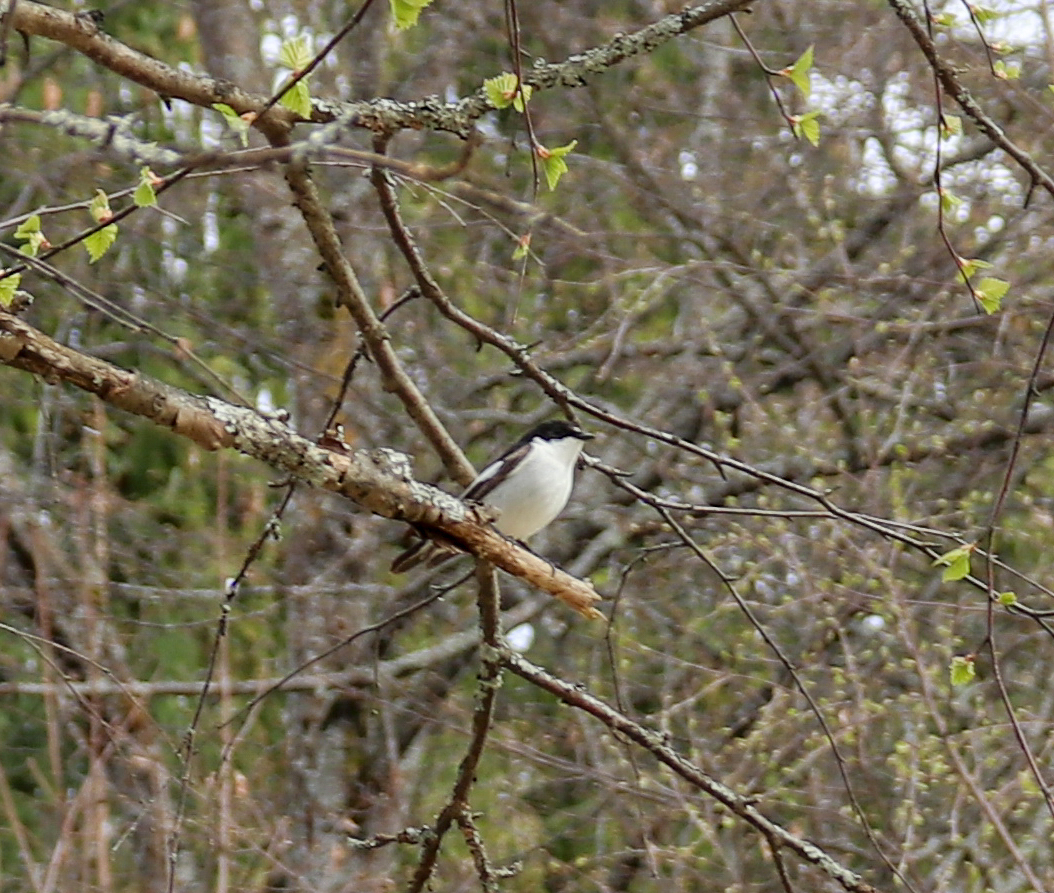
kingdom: Animalia
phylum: Chordata
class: Aves
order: Passeriformes
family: Muscicapidae
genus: Ficedula
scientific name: Ficedula hypoleuca
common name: European pied flycatcher
